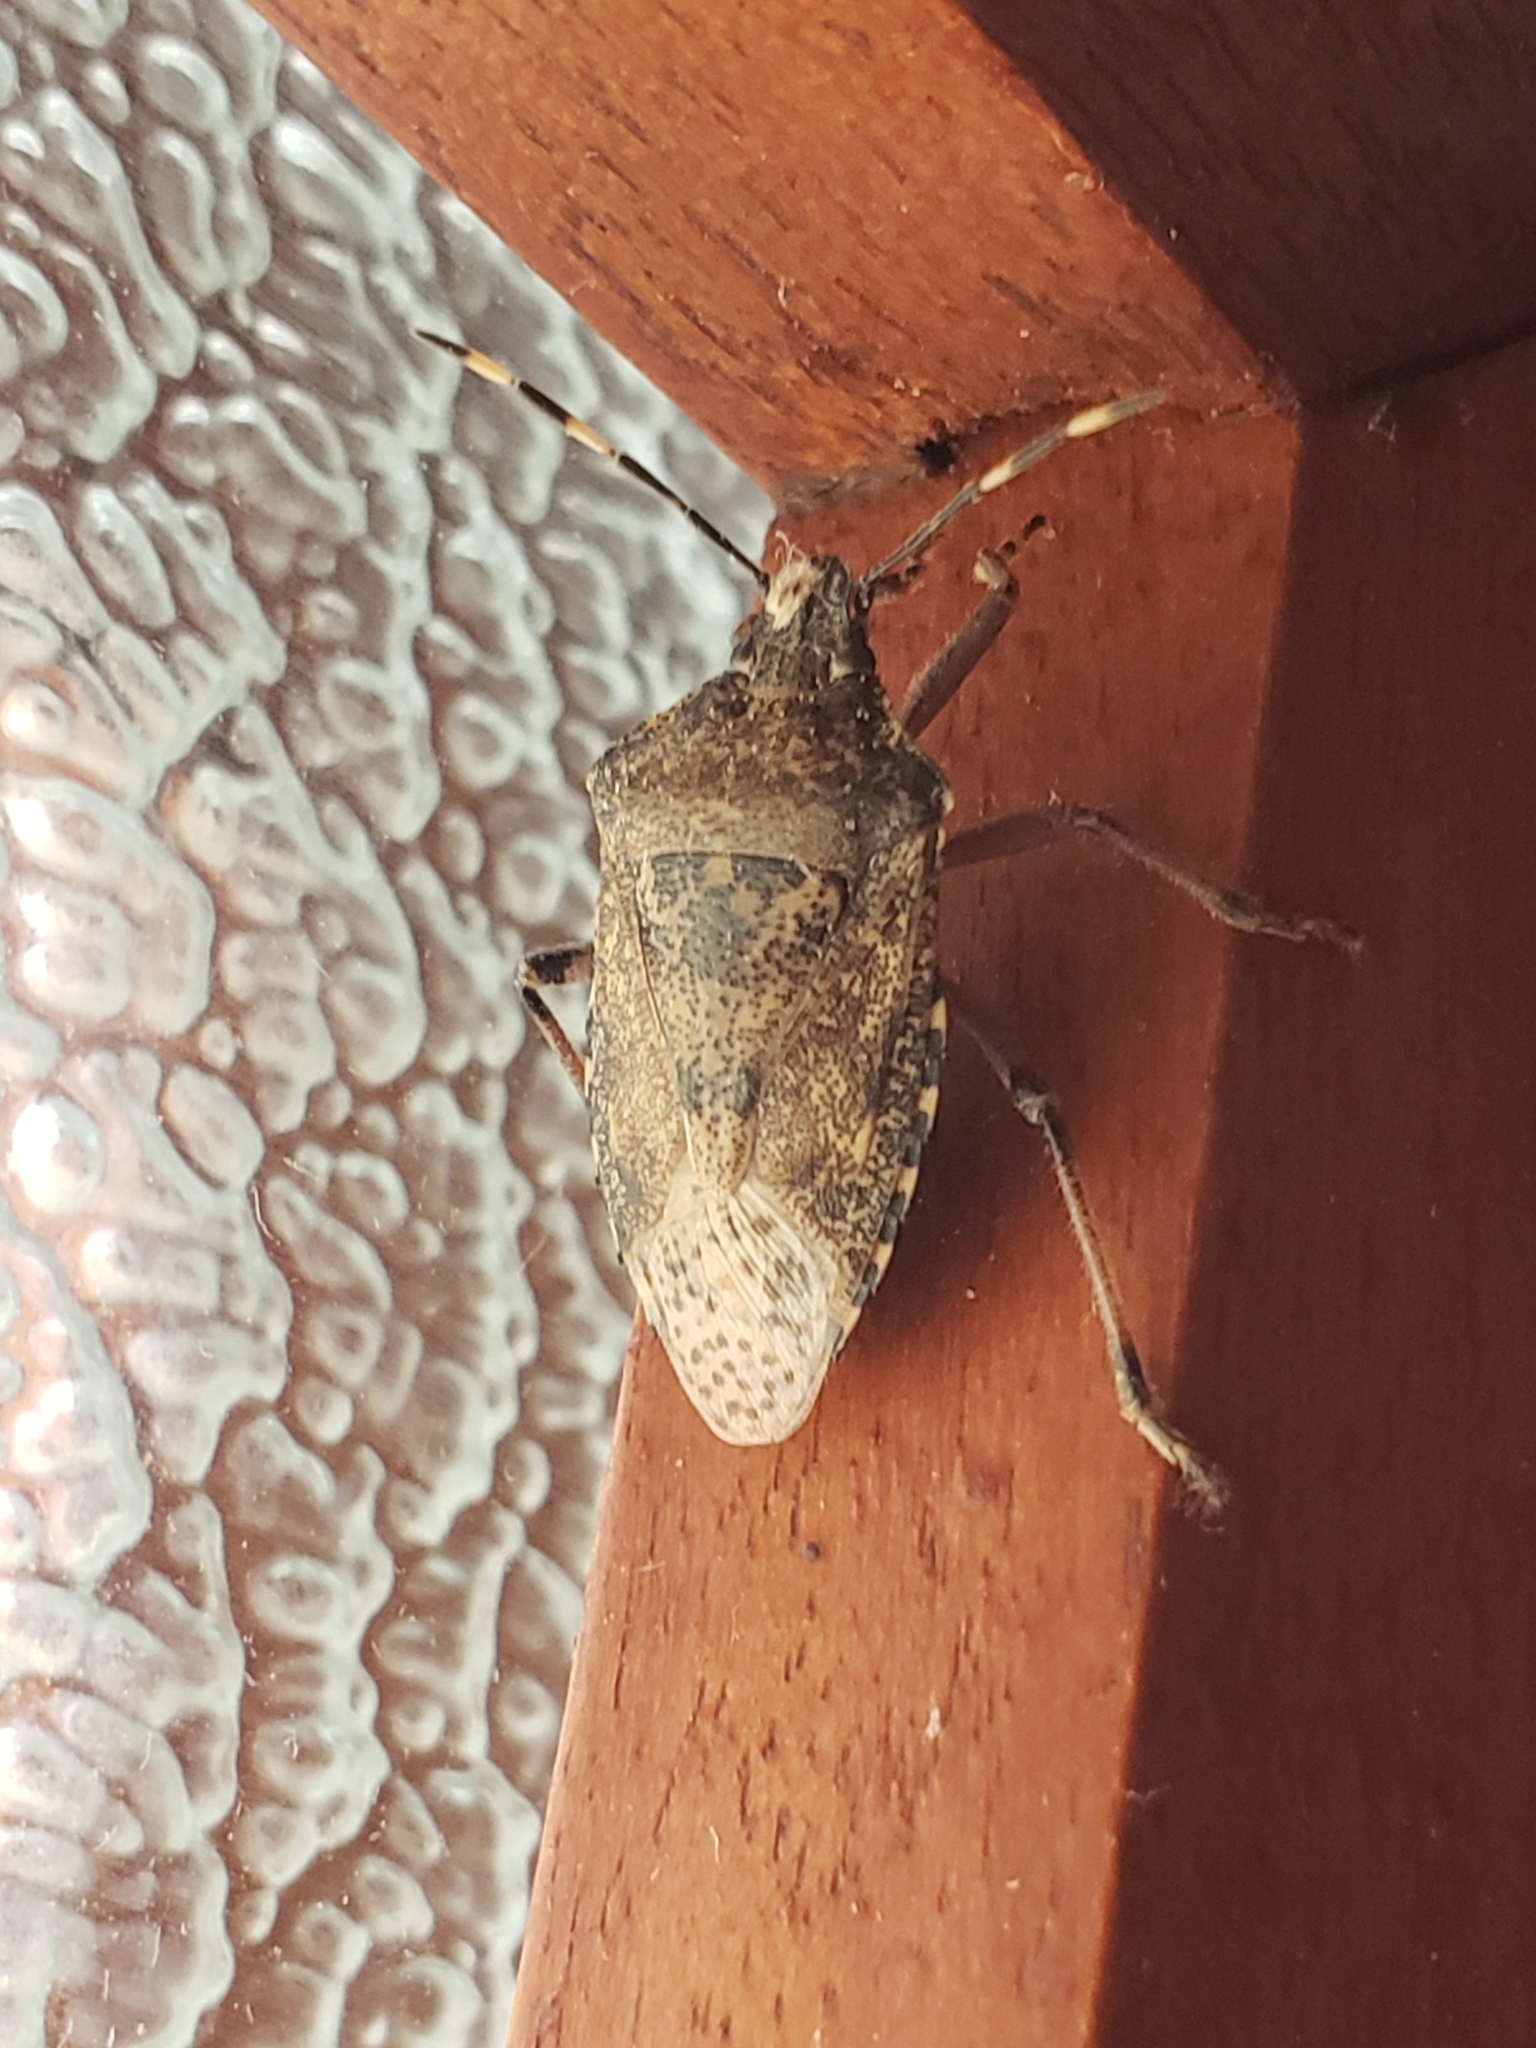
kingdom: Animalia
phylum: Arthropoda
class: Insecta
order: Hemiptera
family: Pentatomidae
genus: Rhaphigaster
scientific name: Rhaphigaster nebulosa
